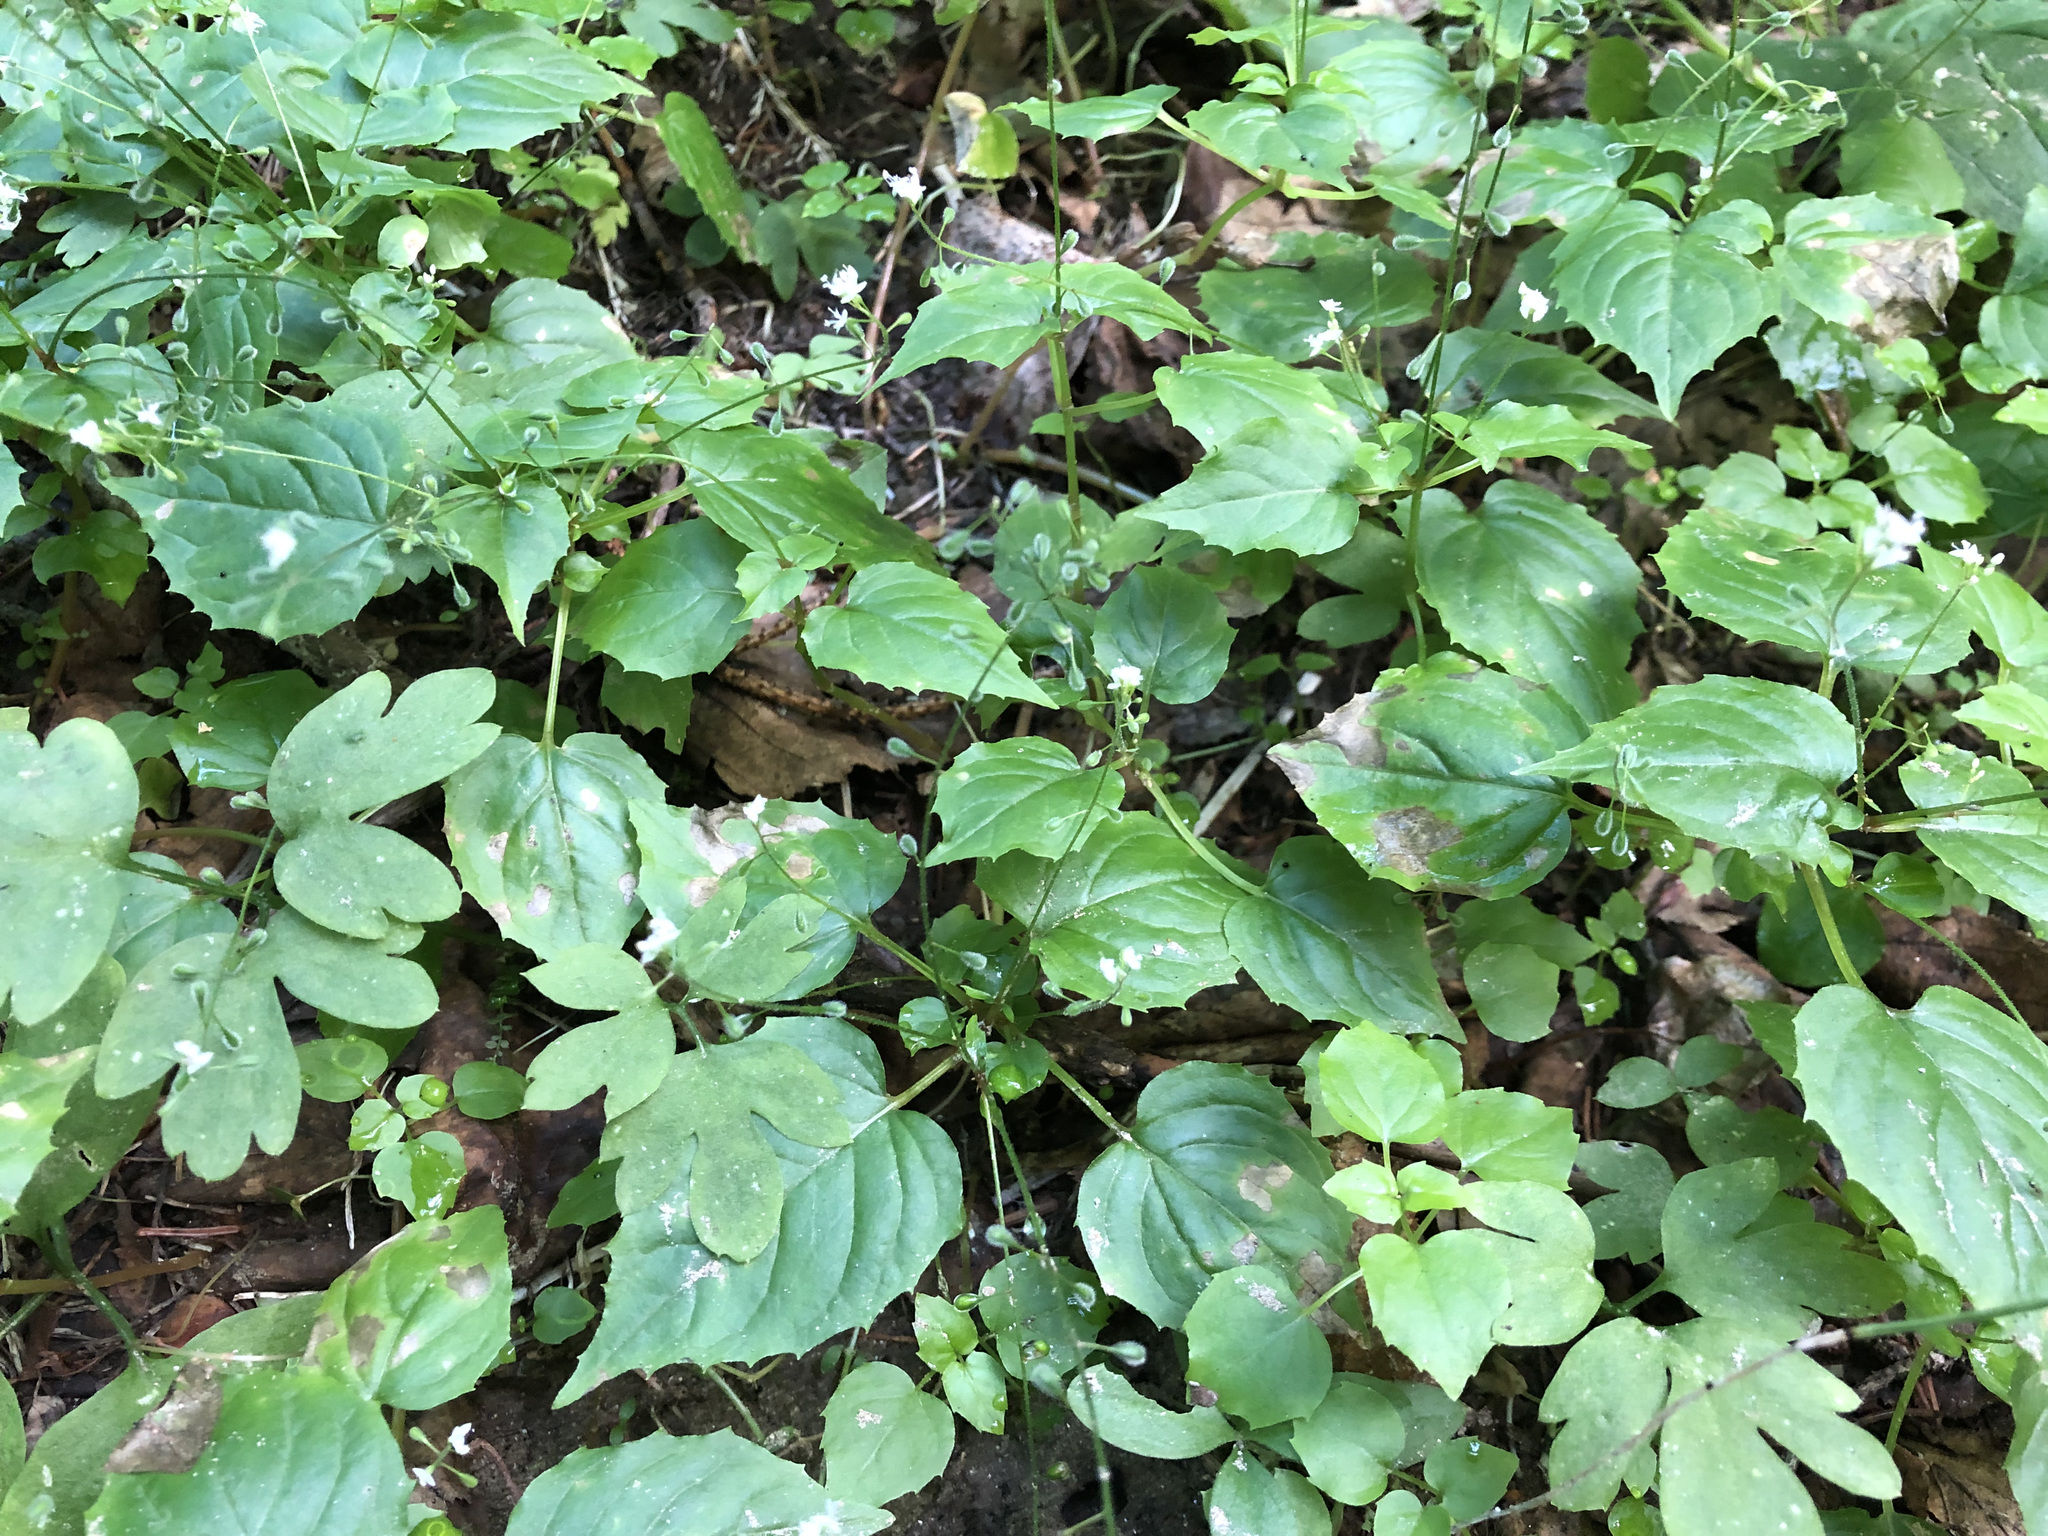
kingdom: Plantae
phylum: Tracheophyta
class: Magnoliopsida
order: Myrtales
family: Onagraceae
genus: Circaea
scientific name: Circaea alpina
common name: Alpine enchanter's-nightshade
